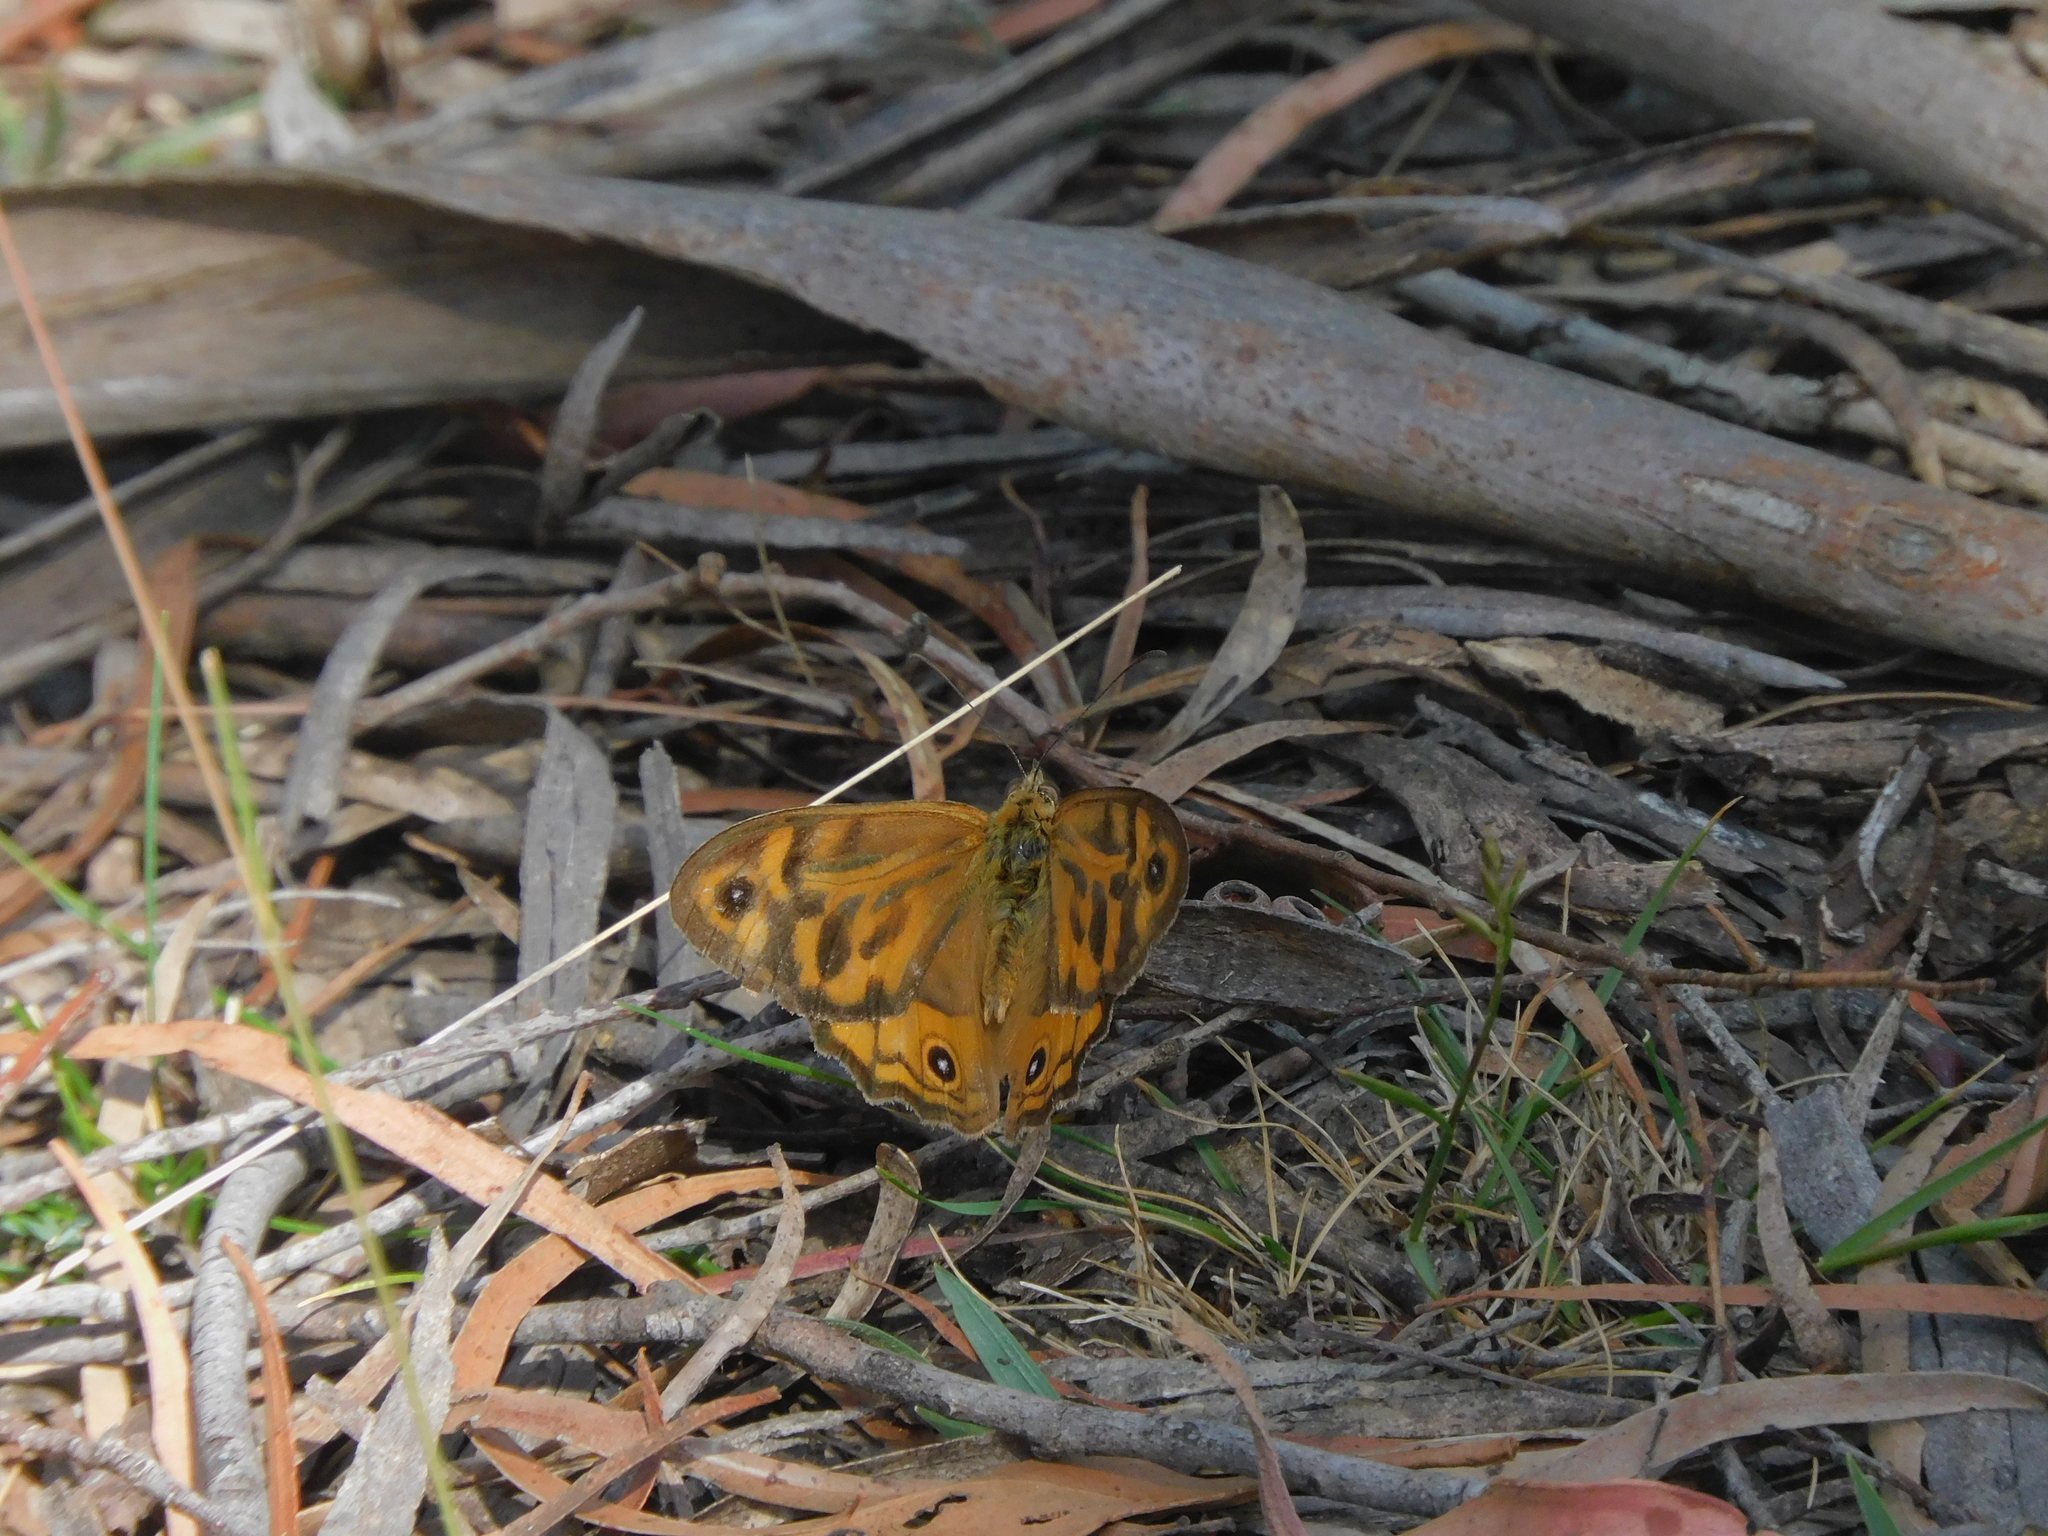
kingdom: Animalia
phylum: Arthropoda
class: Insecta
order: Lepidoptera
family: Nymphalidae
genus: Heteronympha
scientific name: Heteronympha merope
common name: Common brown
